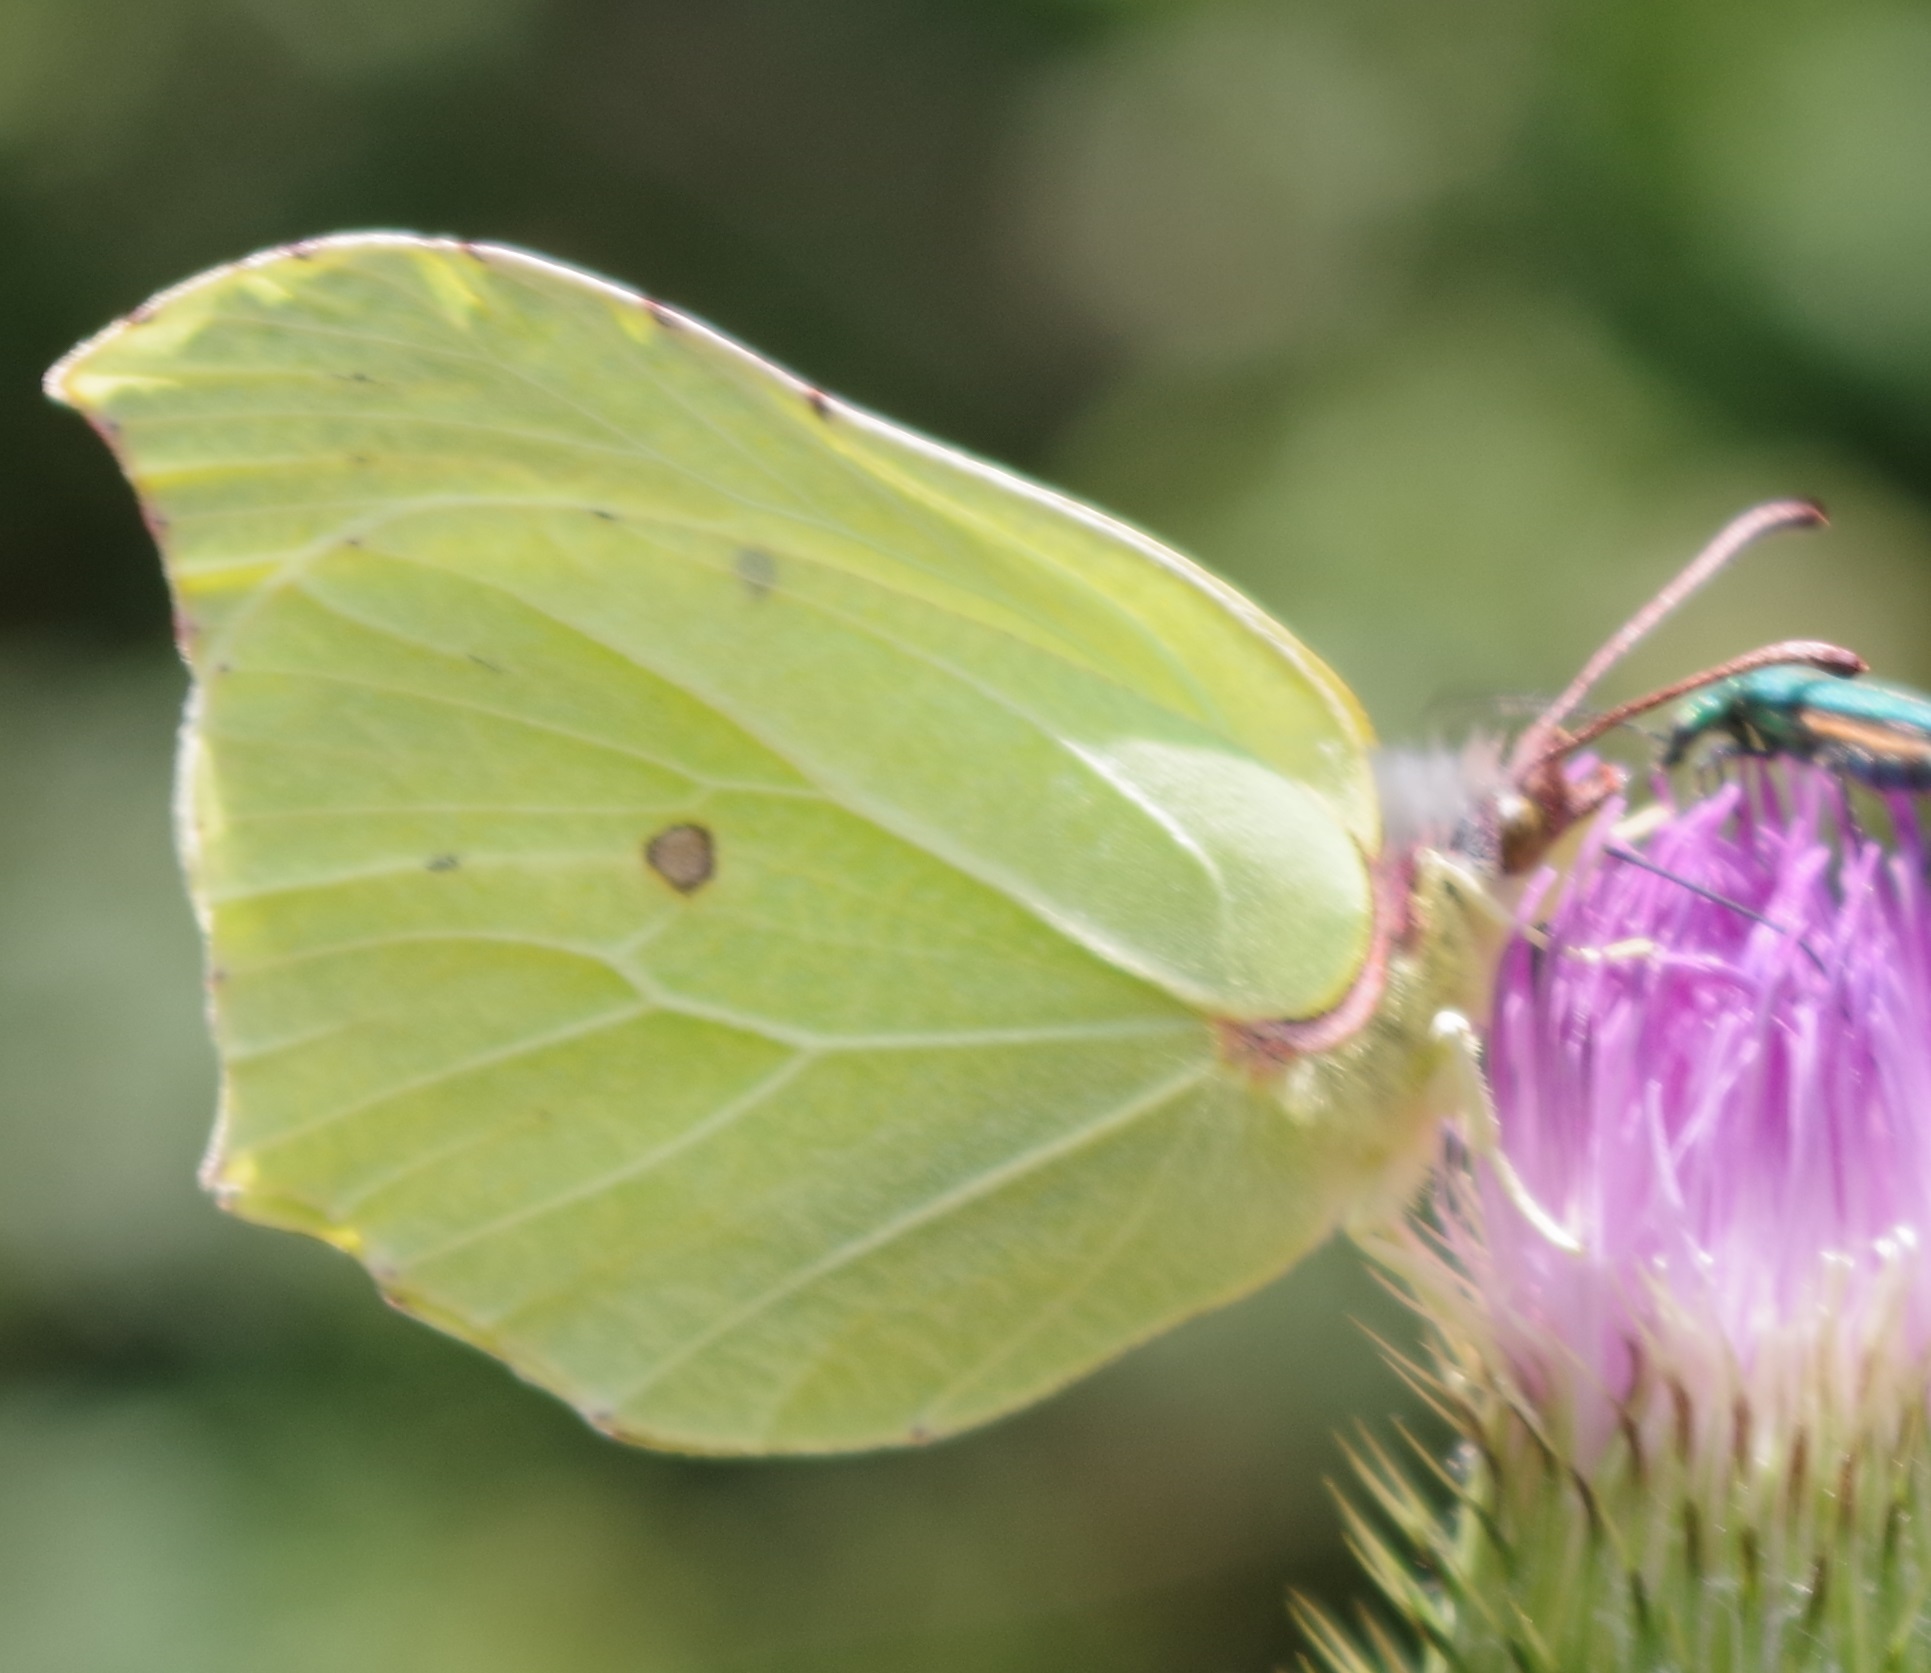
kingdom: Animalia
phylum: Arthropoda
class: Insecta
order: Lepidoptera
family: Pieridae
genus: Gonepteryx
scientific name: Gonepteryx rhamni
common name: Brimstone
